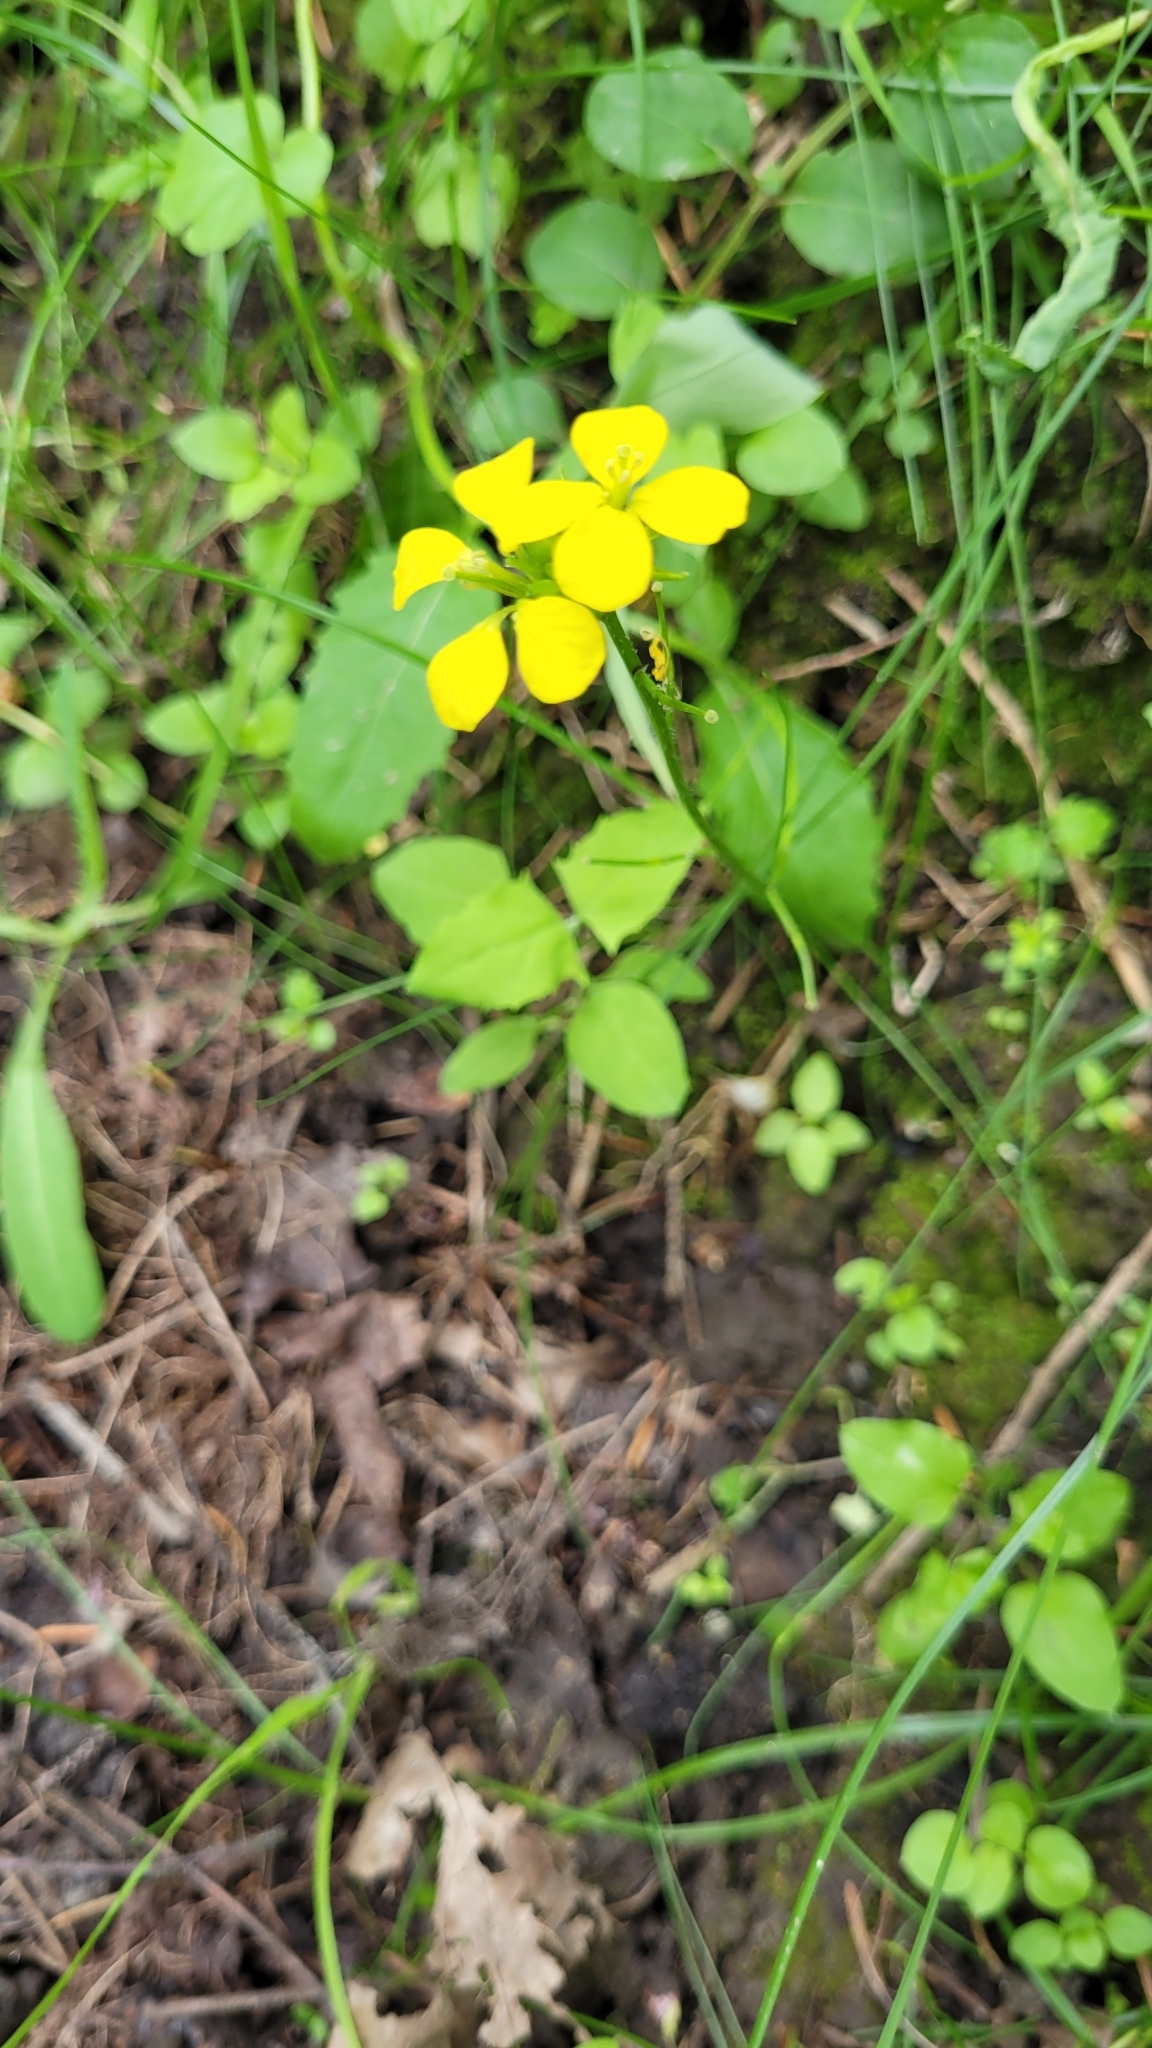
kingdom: Plantae
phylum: Tracheophyta
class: Magnoliopsida
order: Brassicales
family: Brassicaceae
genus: Sinapis
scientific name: Sinapis arvensis
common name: Charlock
